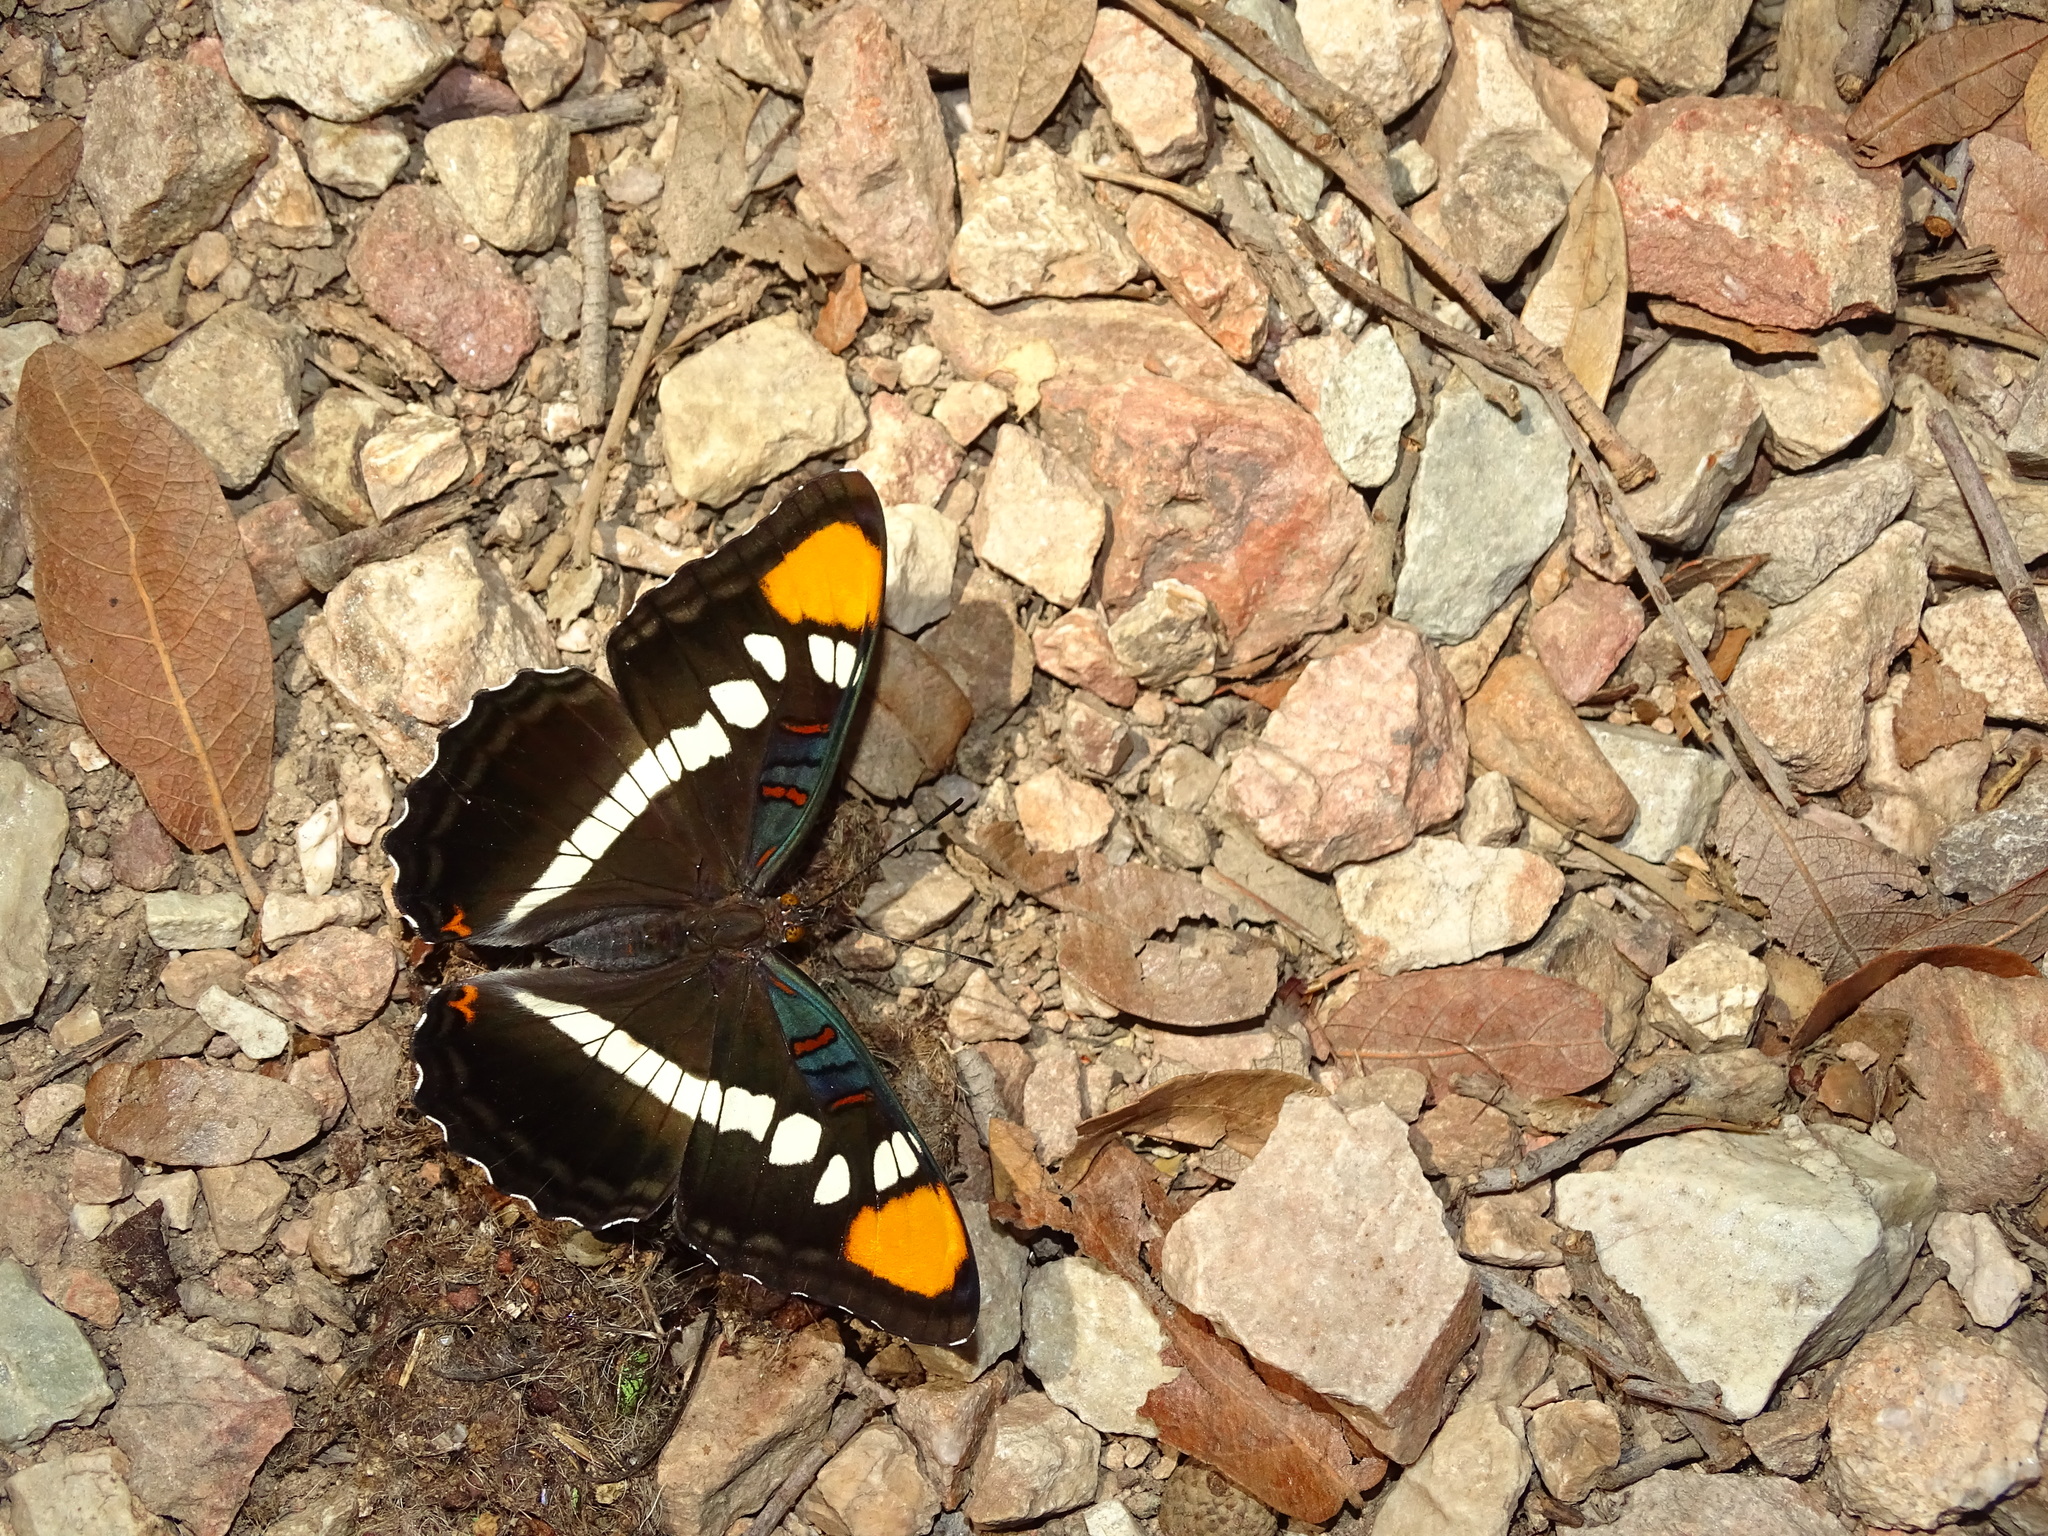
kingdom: Animalia
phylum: Arthropoda
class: Insecta
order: Lepidoptera
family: Nymphalidae
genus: Limenitis
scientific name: Limenitis bredowii
